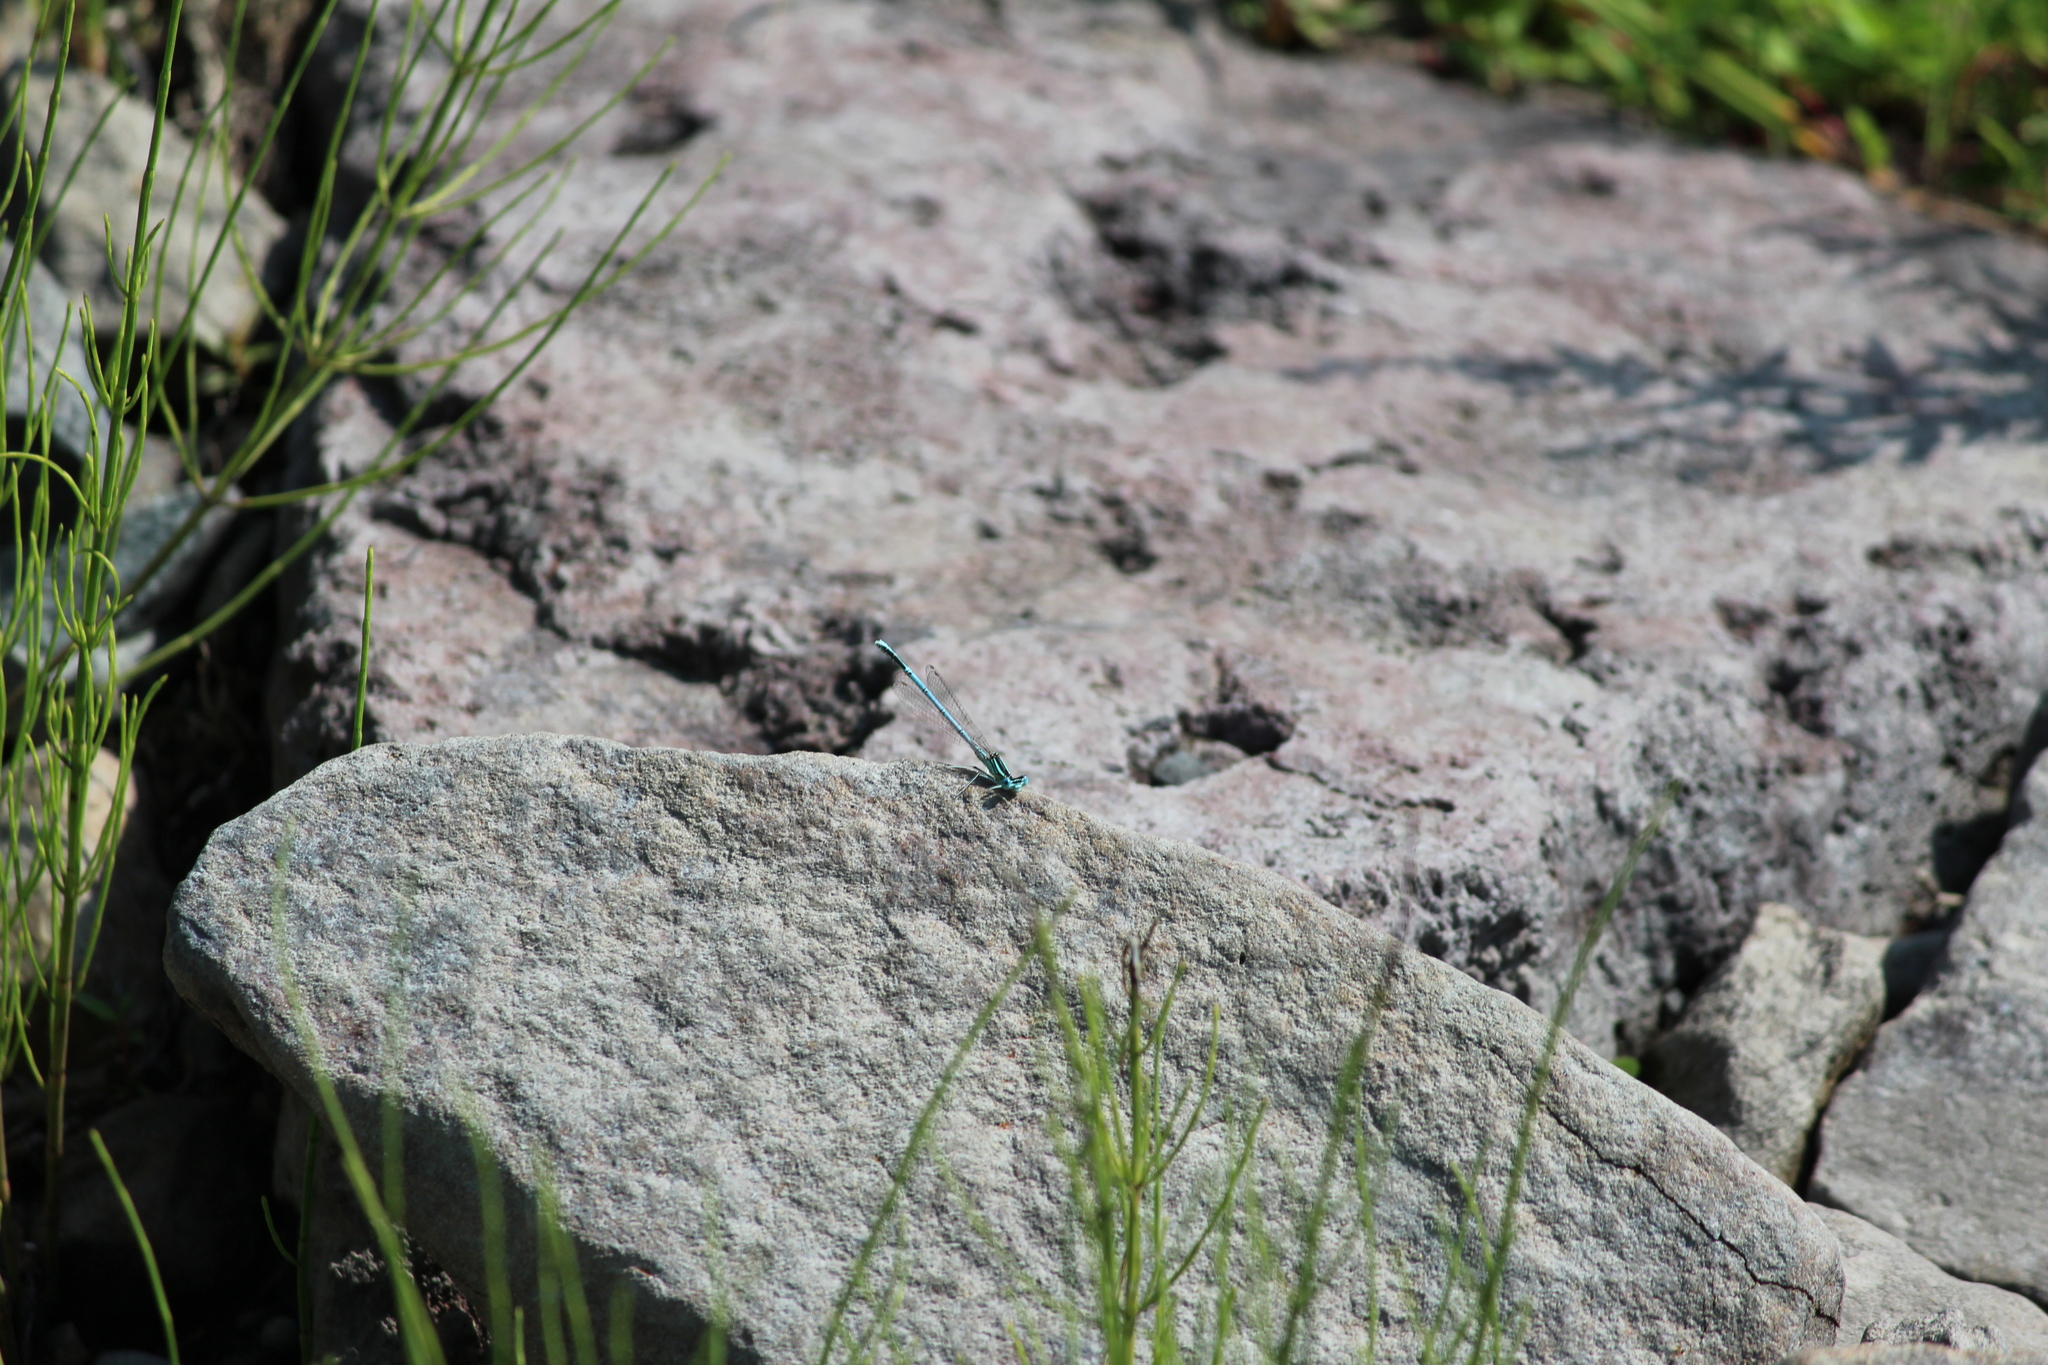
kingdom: Animalia
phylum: Arthropoda
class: Insecta
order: Odonata
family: Platycnemididae
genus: Platycnemis
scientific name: Platycnemis pennipes
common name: White-legged damselfly
